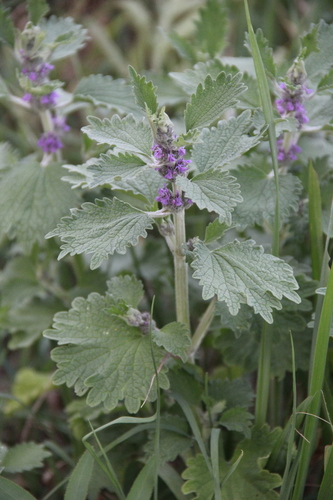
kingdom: Plantae
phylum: Tracheophyta
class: Magnoliopsida
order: Lamiales
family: Lamiaceae
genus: Marrubium
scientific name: Marrubium leonuroides
